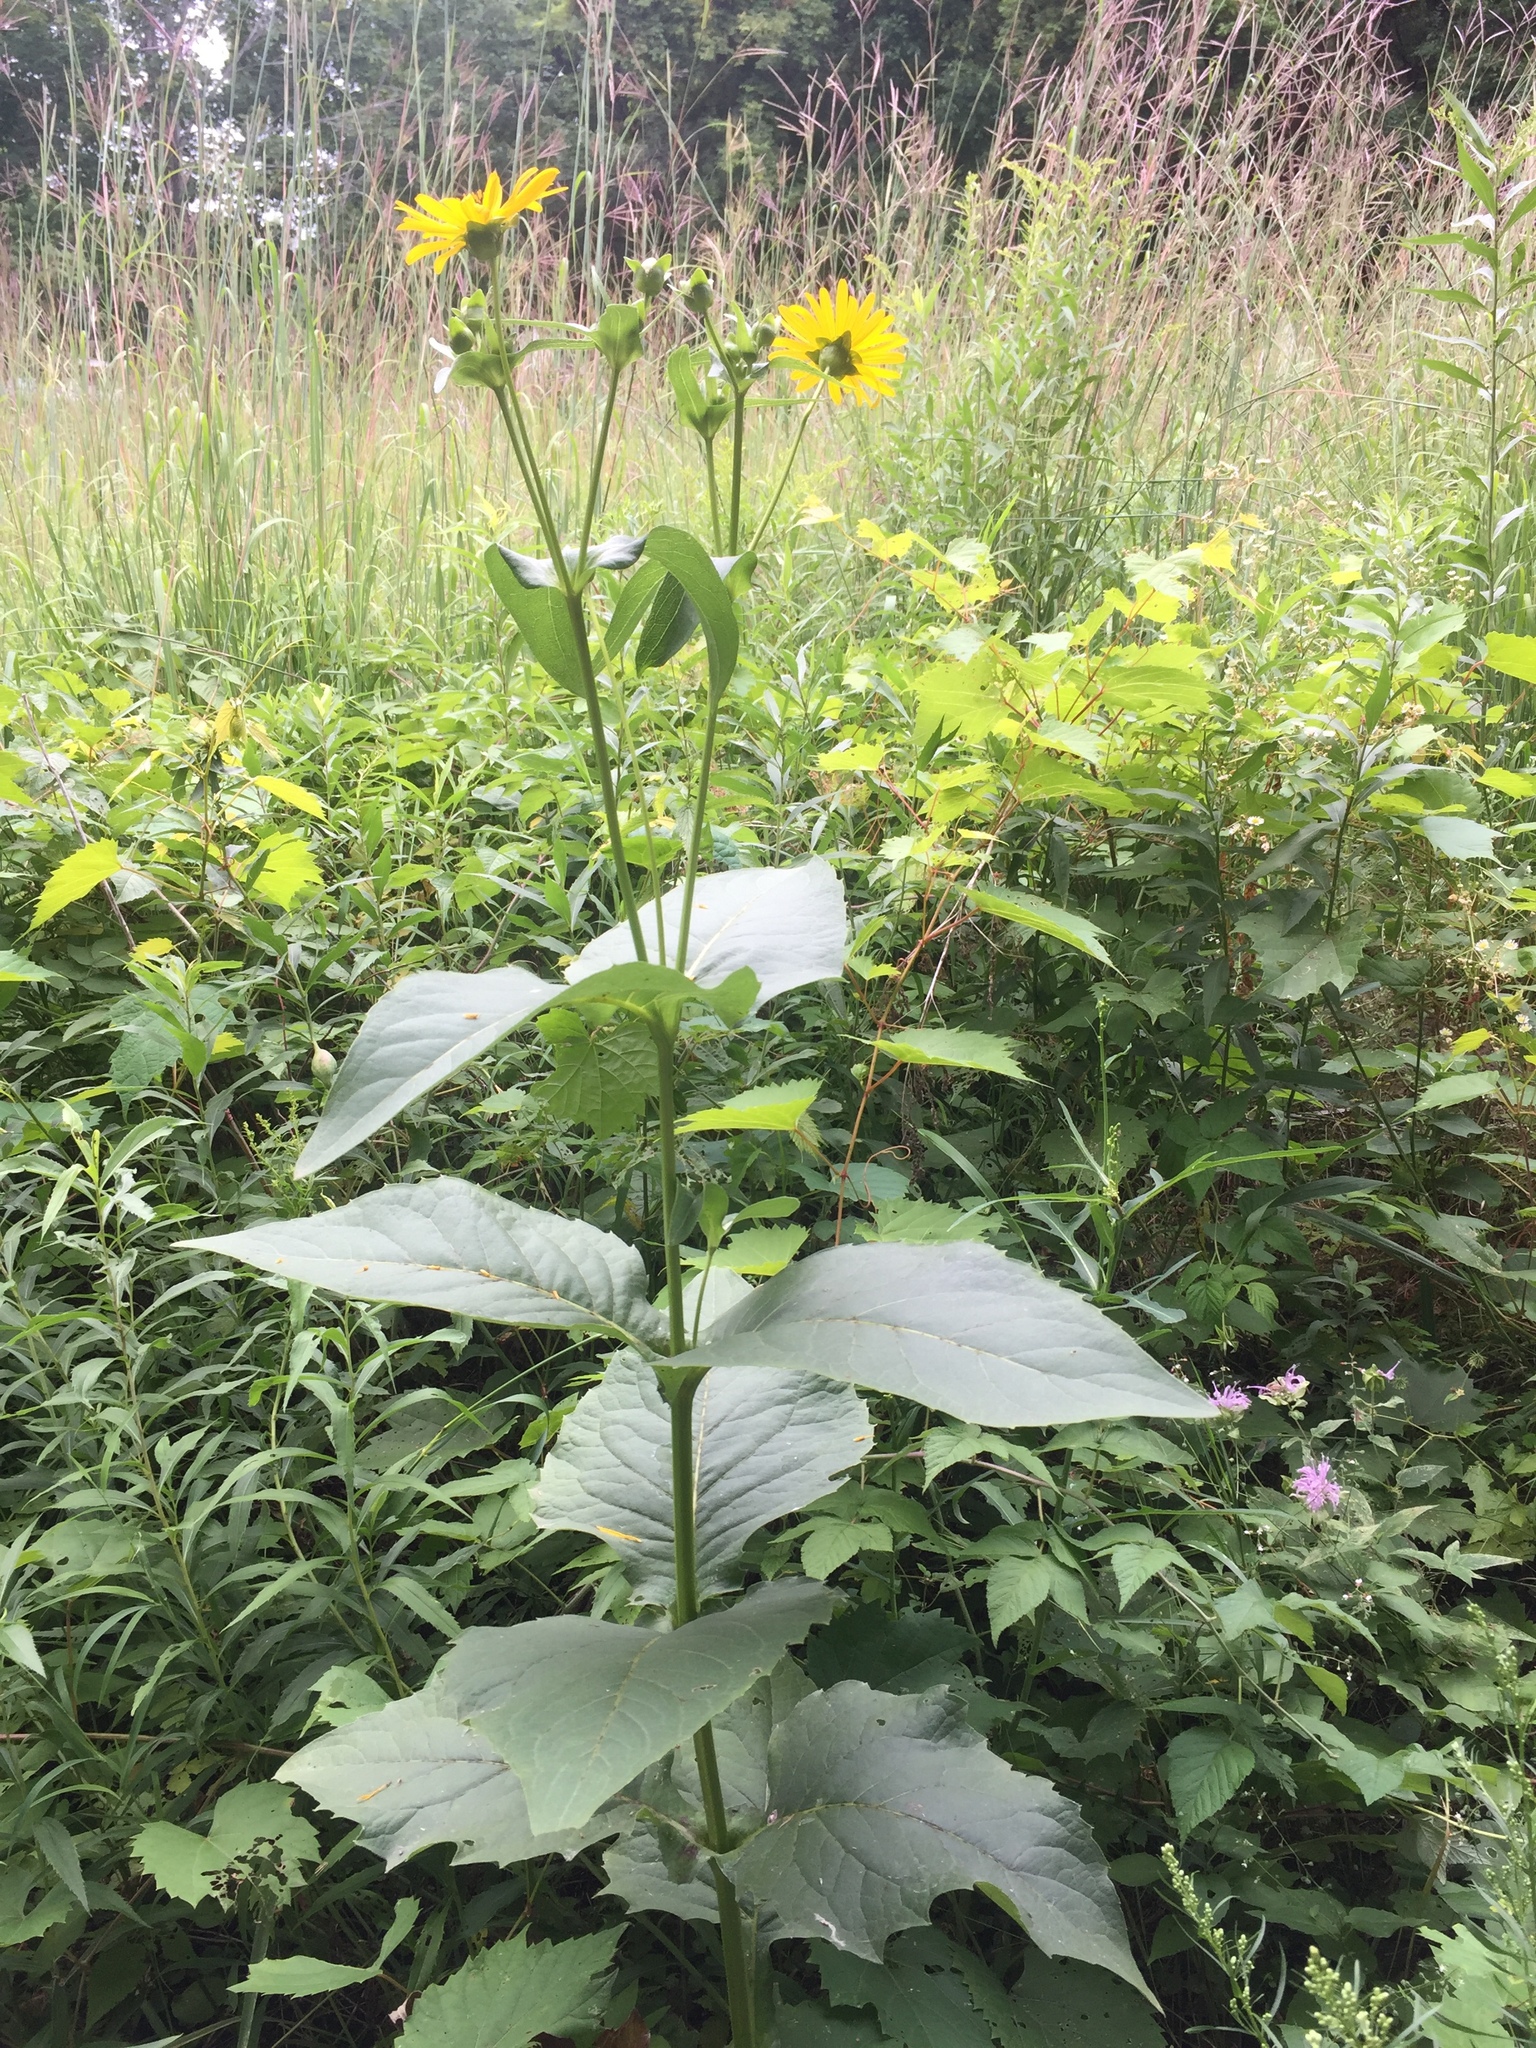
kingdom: Plantae
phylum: Tracheophyta
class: Magnoliopsida
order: Asterales
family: Asteraceae
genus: Silphium
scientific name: Silphium perfoliatum
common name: Cup-plant
